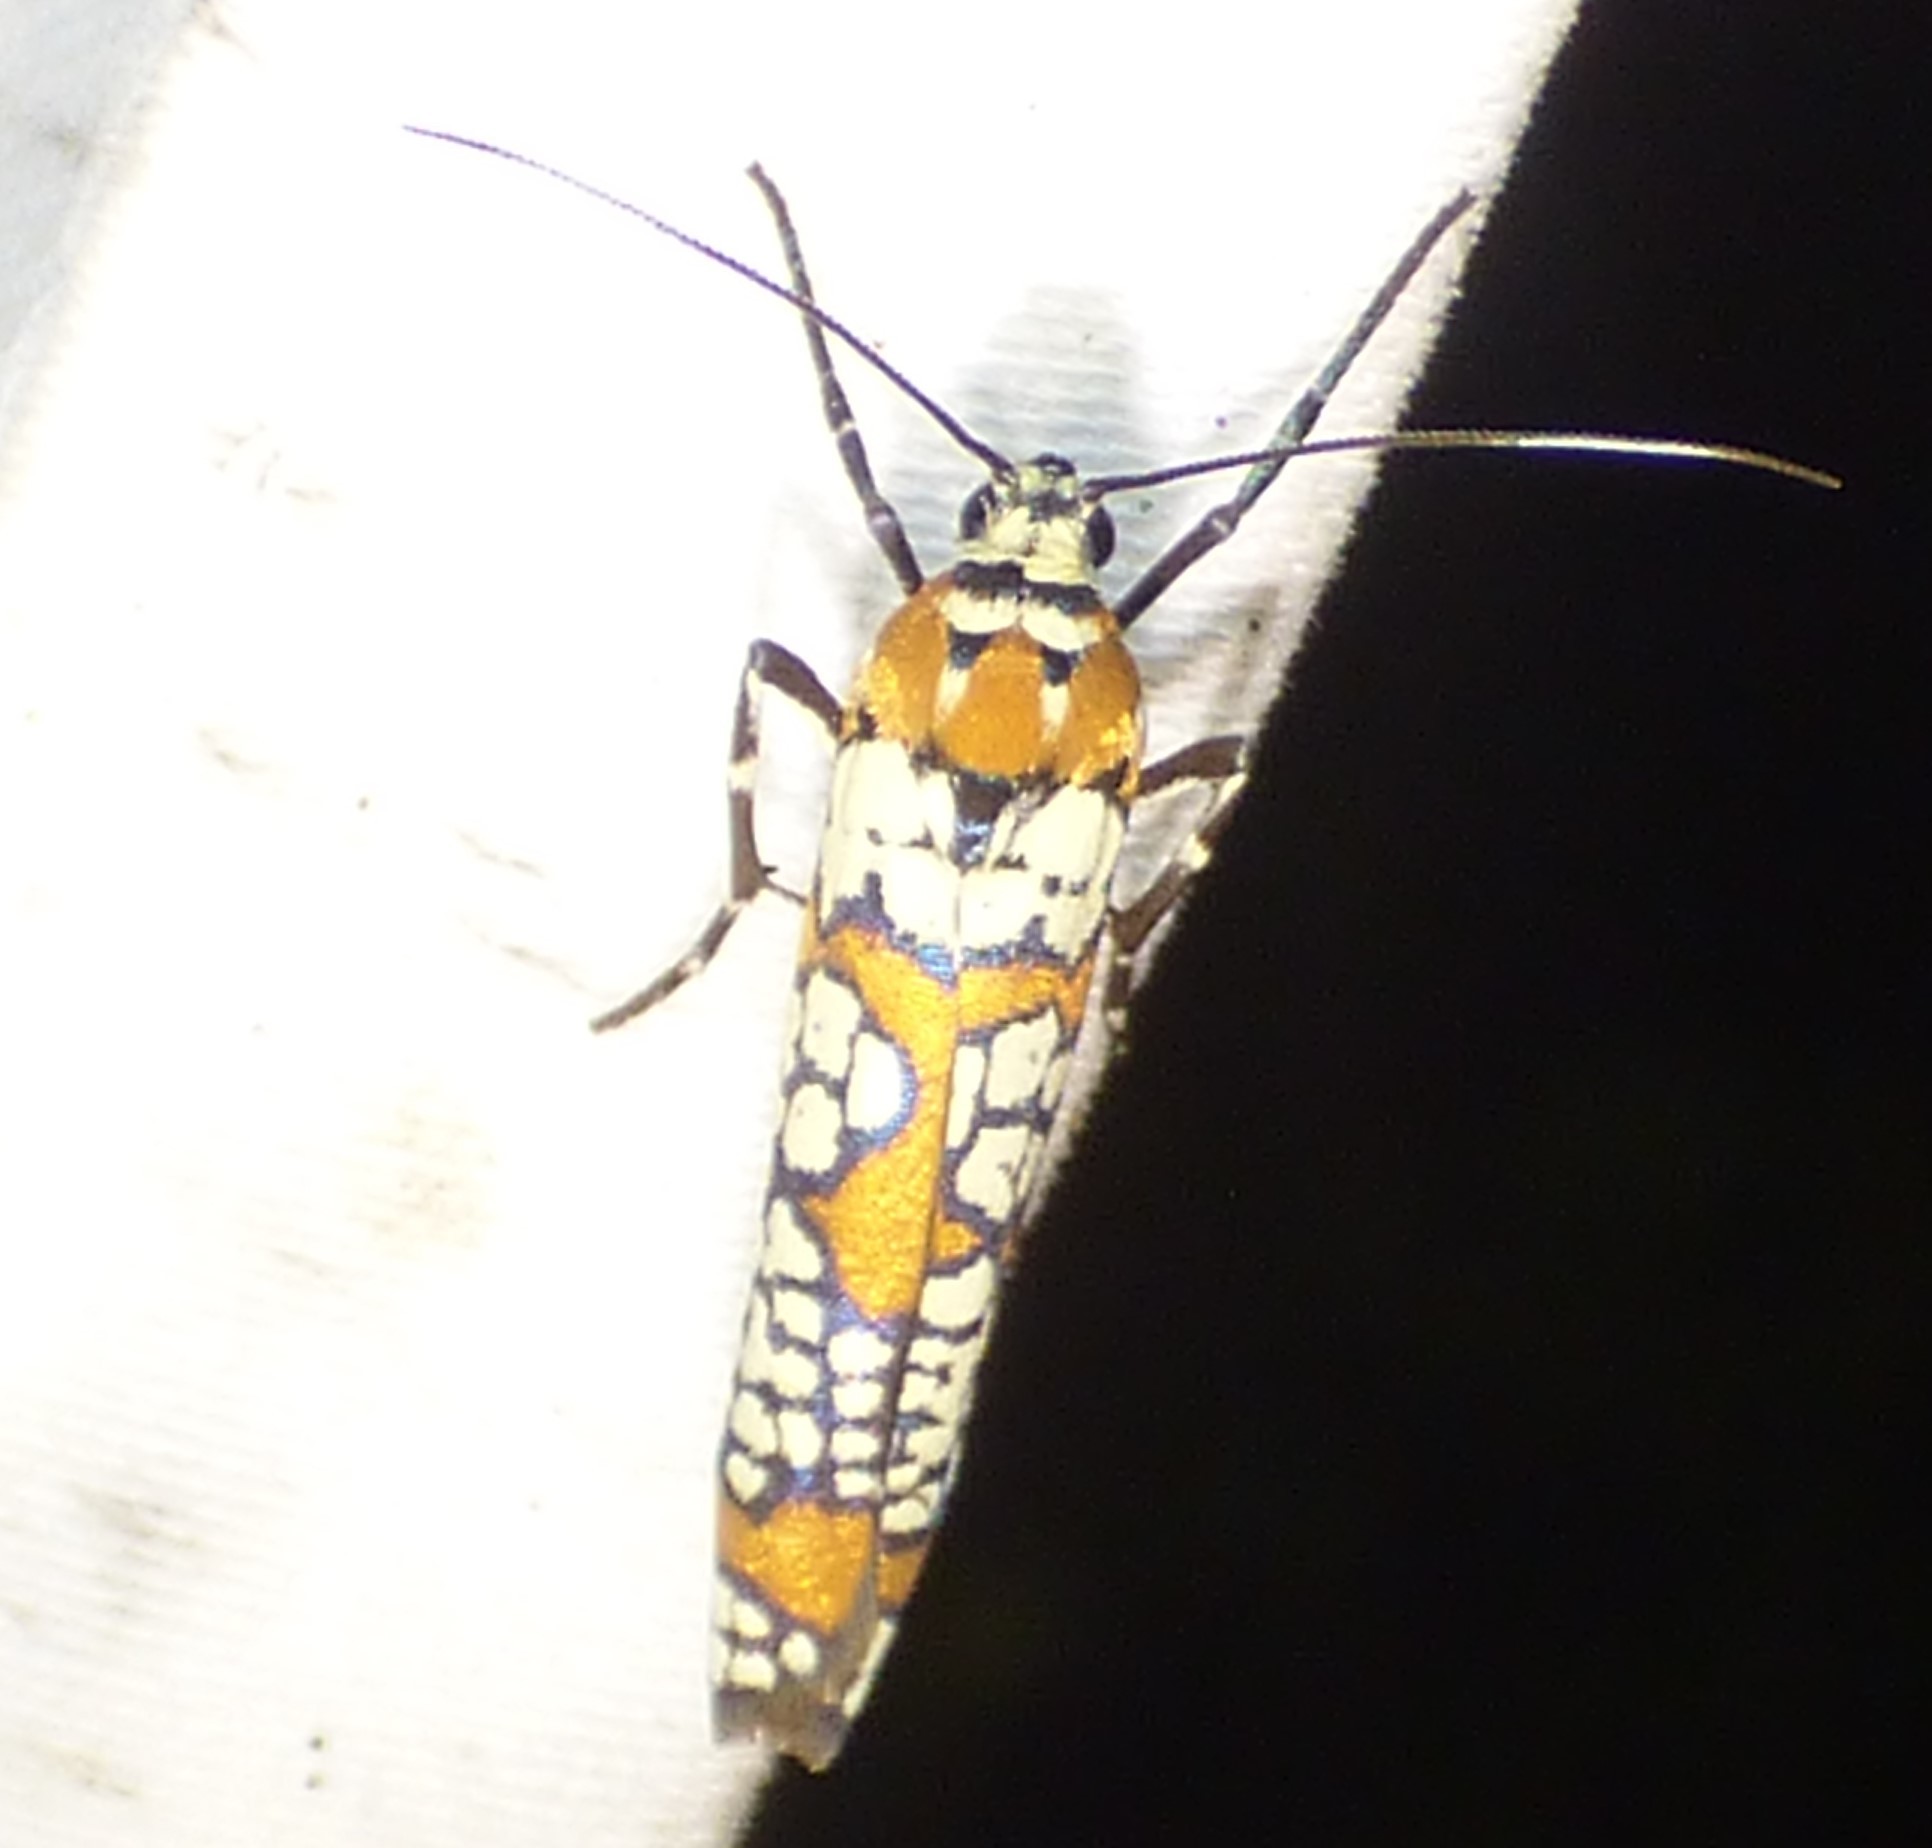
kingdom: Animalia
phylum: Arthropoda
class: Insecta
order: Lepidoptera
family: Attevidae
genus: Atteva
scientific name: Atteva punctella
